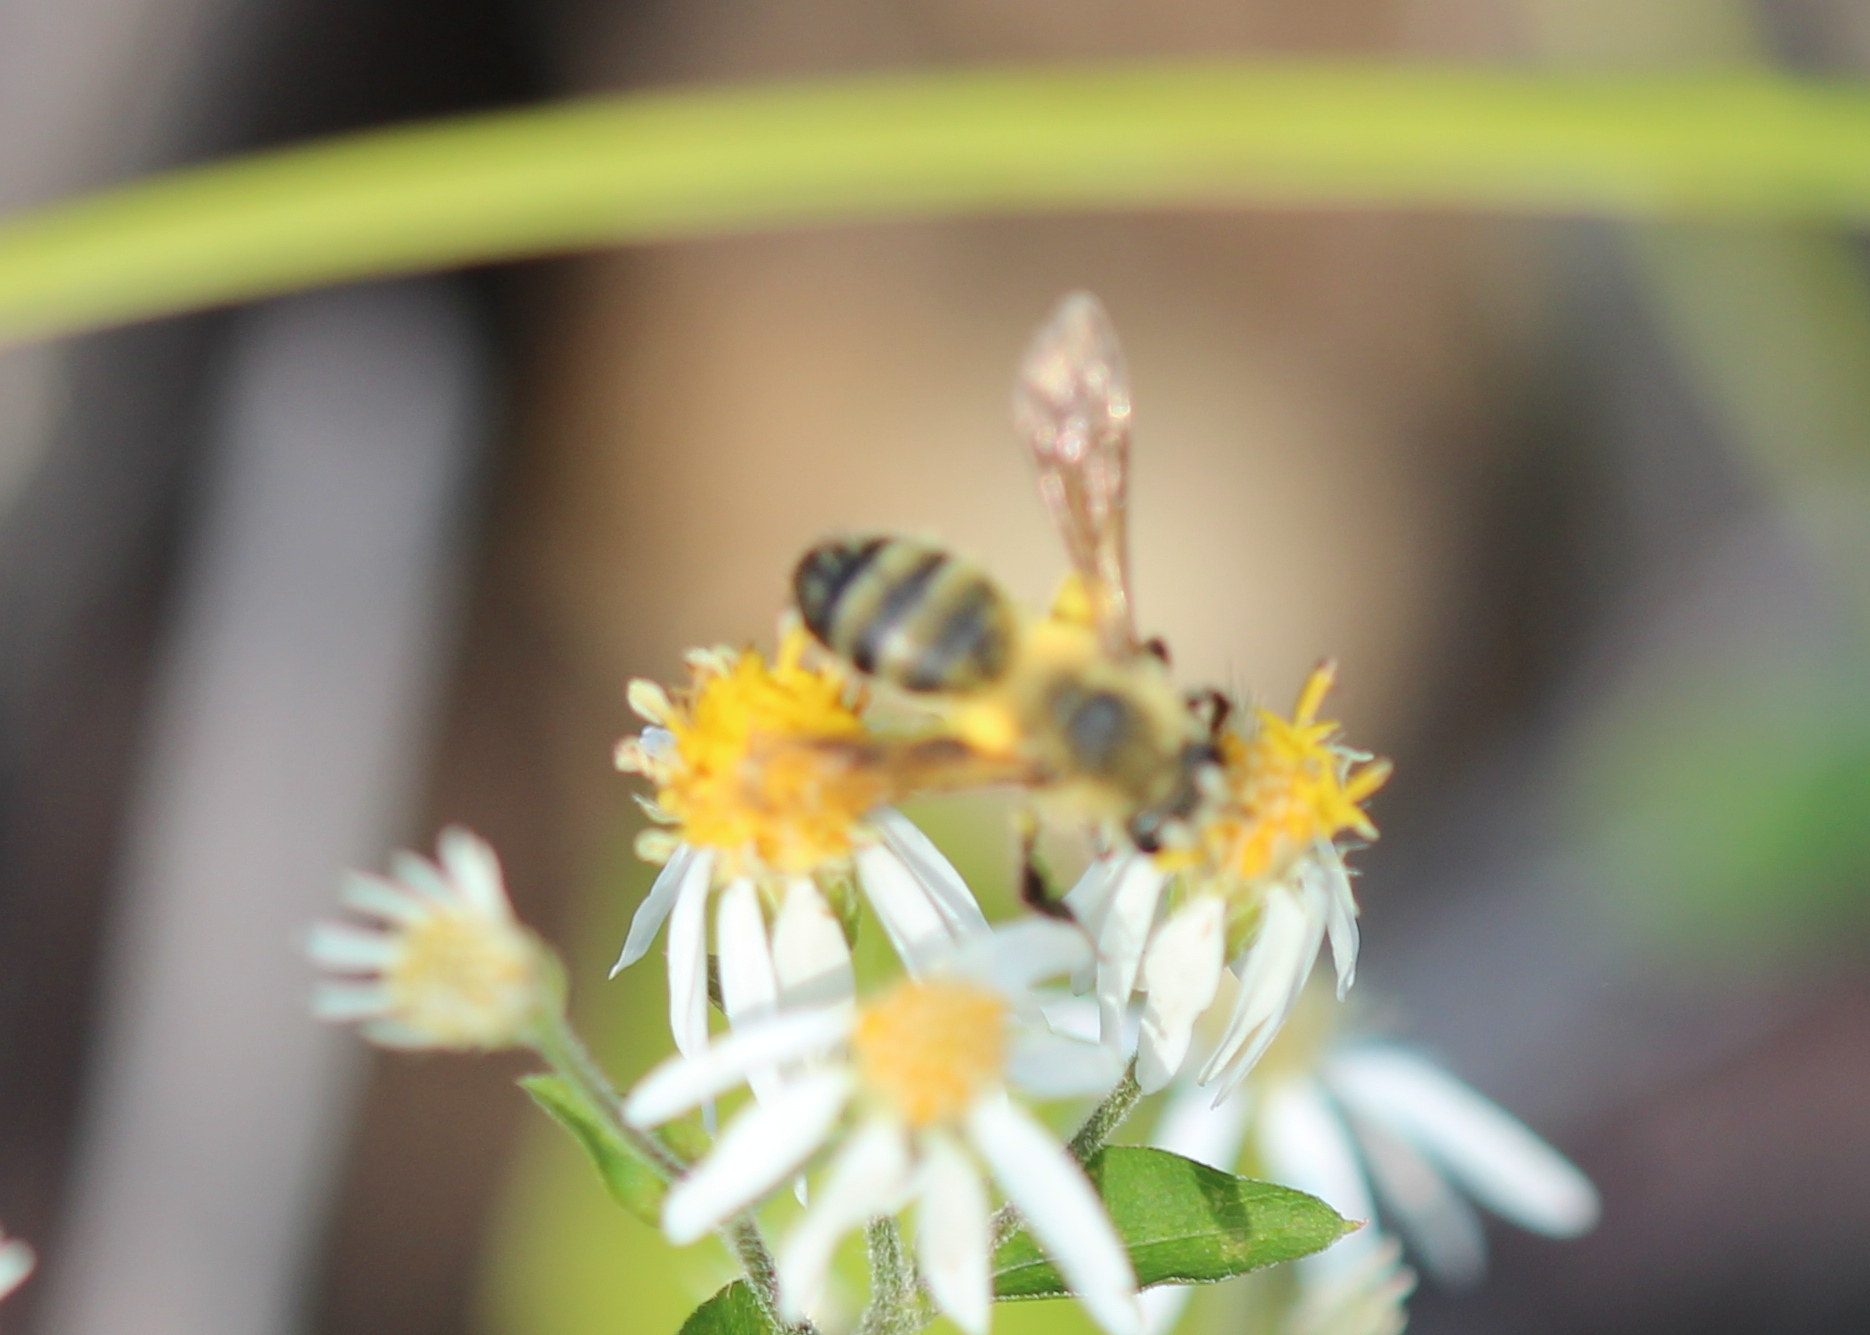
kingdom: Animalia
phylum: Arthropoda
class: Insecta
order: Hymenoptera
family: Andrenidae
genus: Andrena
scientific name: Andrena hirticincta
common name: Hairy-banded mining bee
